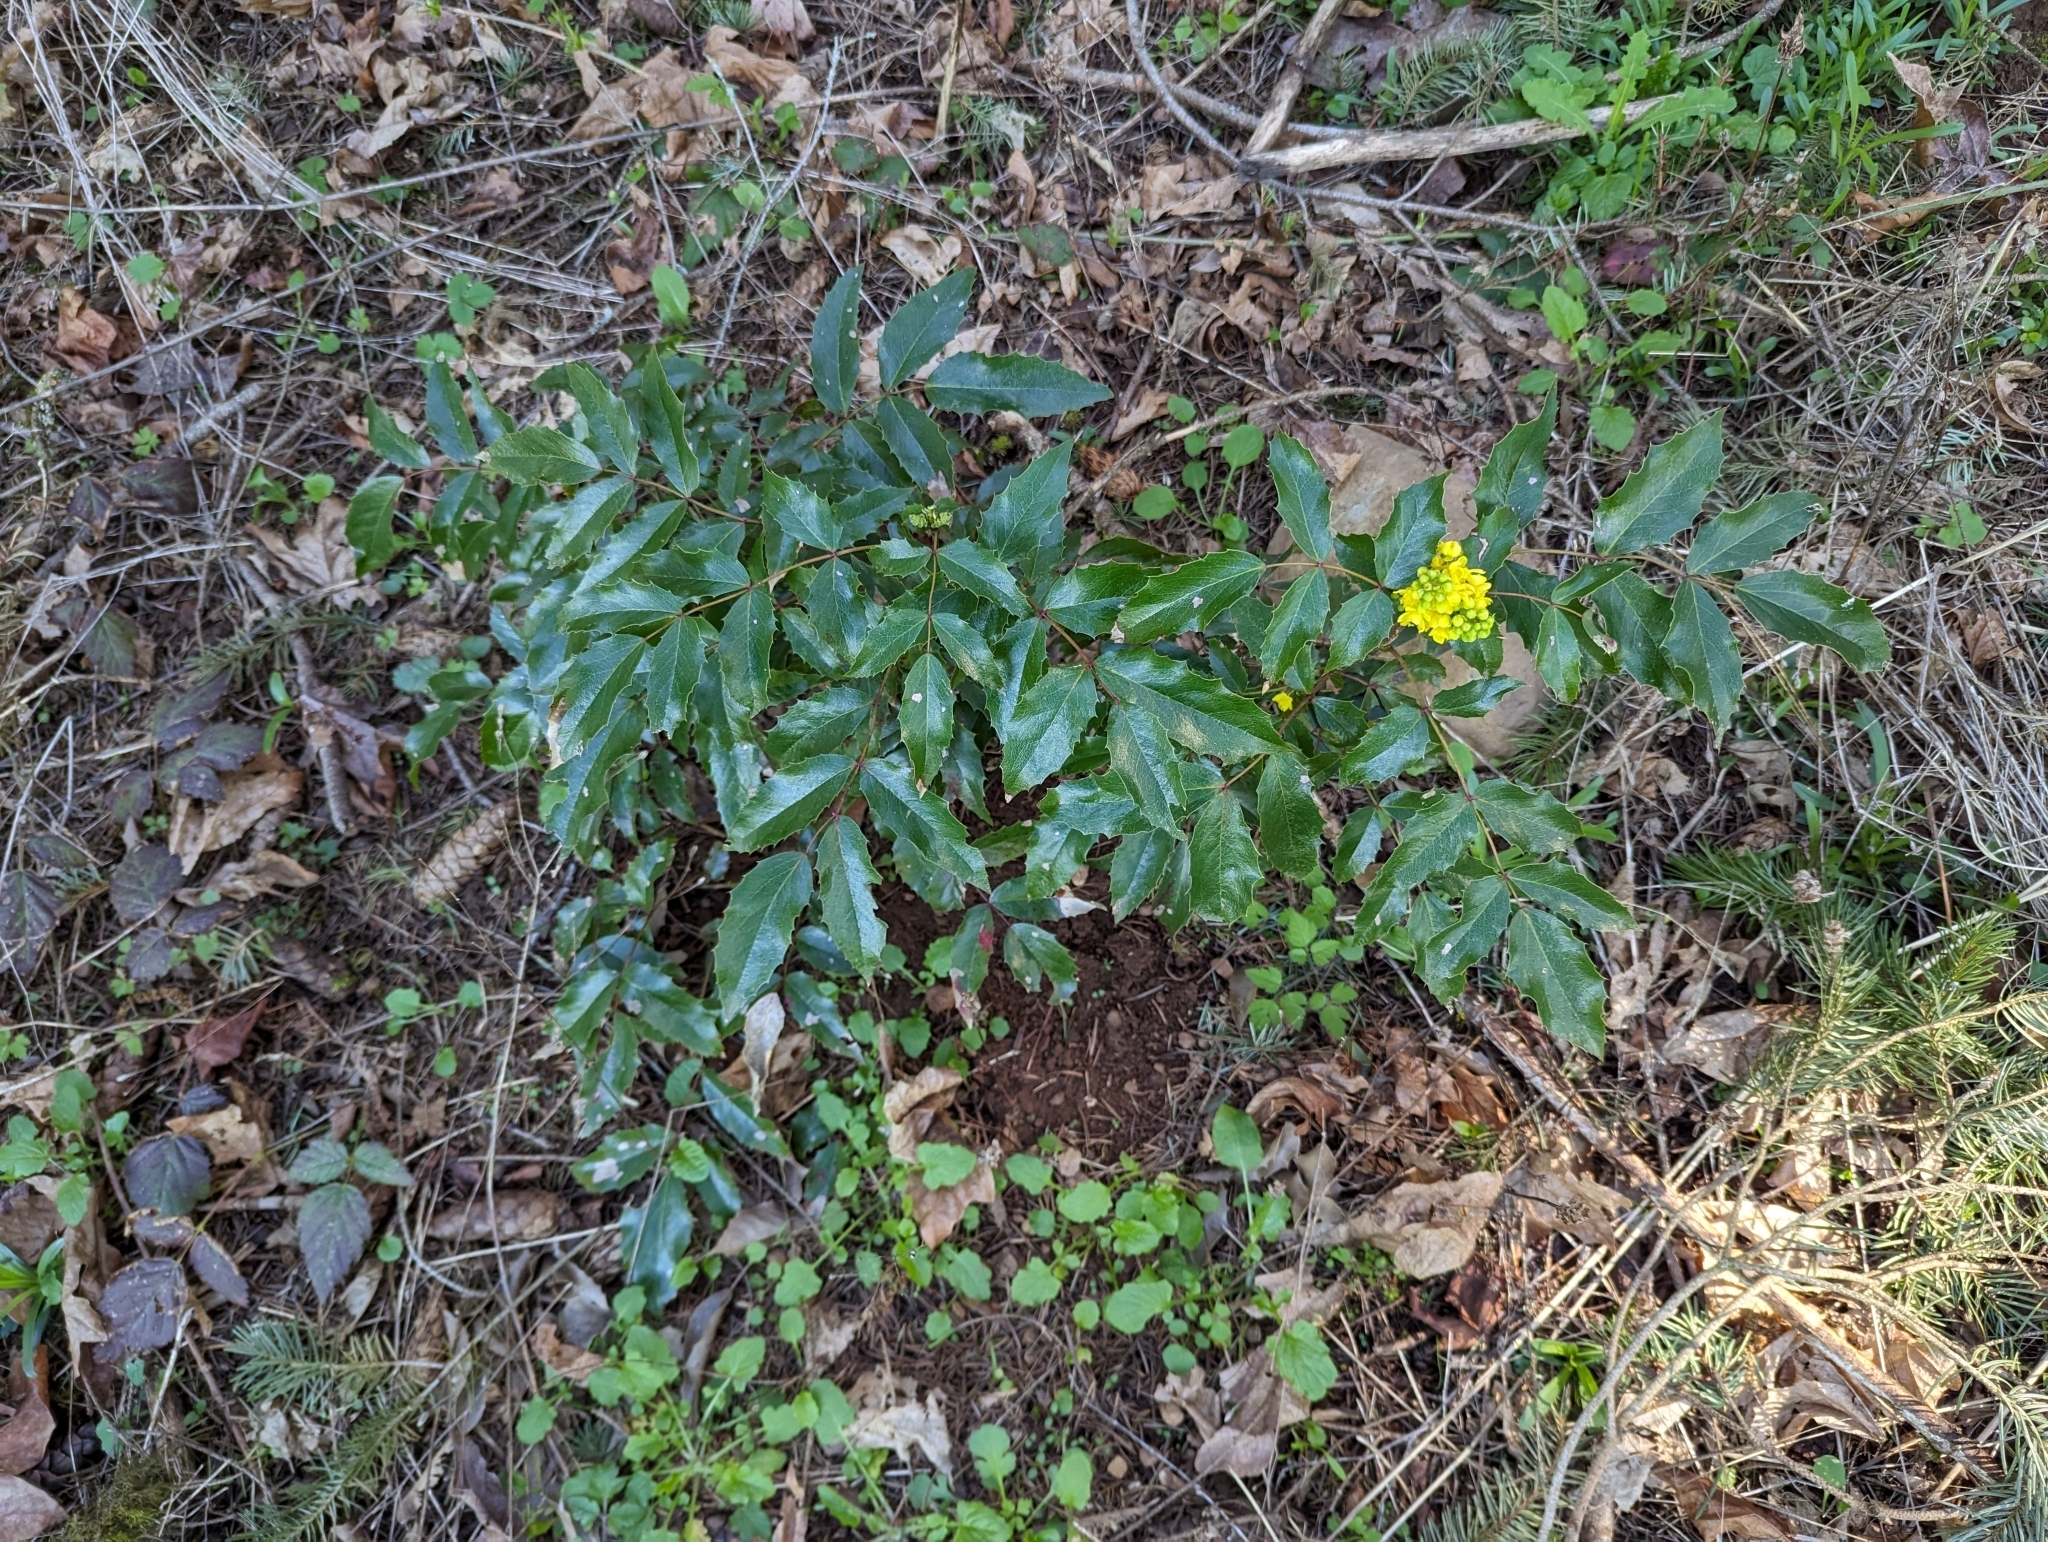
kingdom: Plantae
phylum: Tracheophyta
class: Magnoliopsida
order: Ranunculales
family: Berberidaceae
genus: Mahonia
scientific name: Mahonia aquifolium
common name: Oregon-grape
